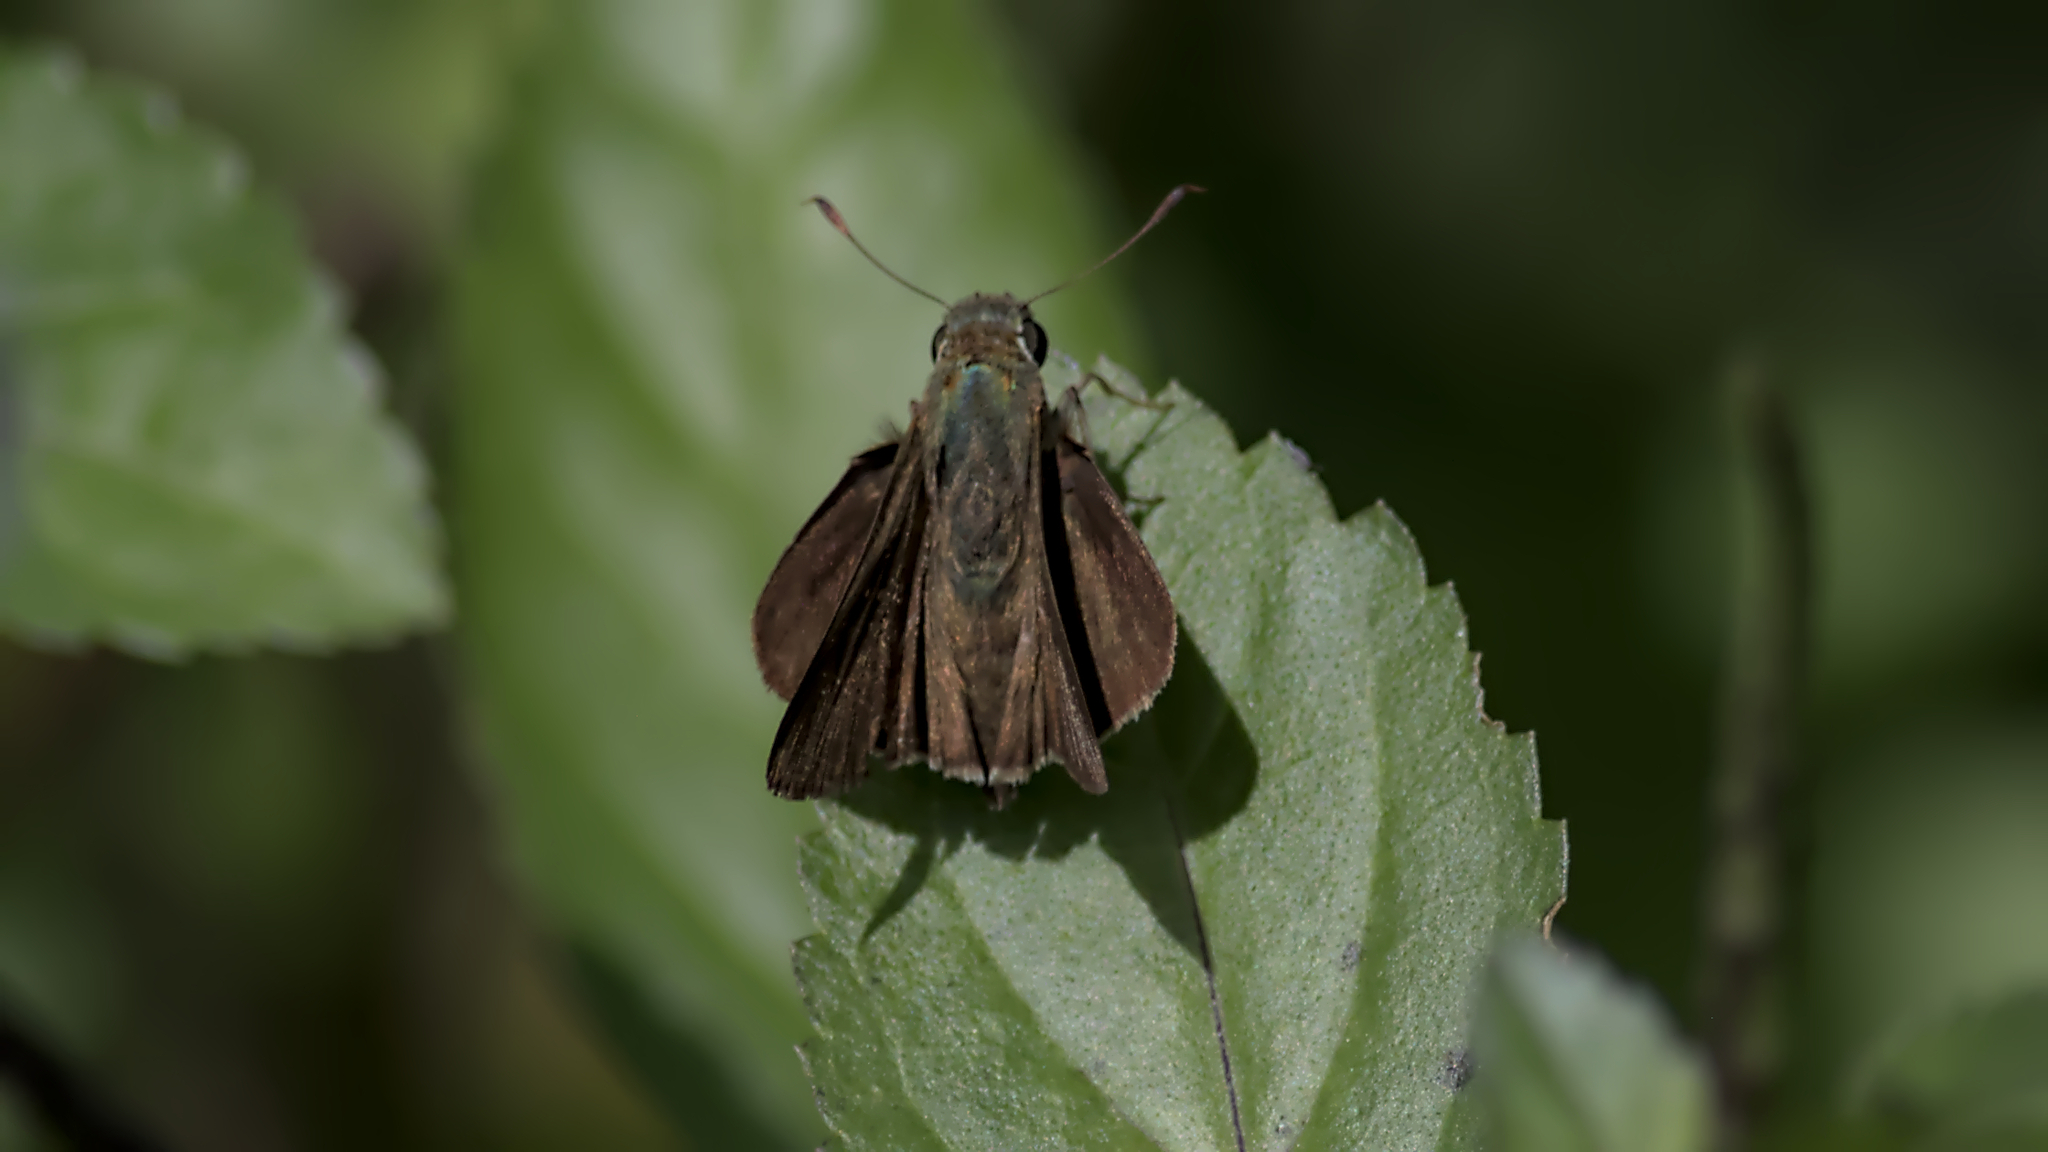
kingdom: Animalia
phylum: Arthropoda
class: Insecta
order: Lepidoptera
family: Hesperiidae
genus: Pelopidas
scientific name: Pelopidas agna
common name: Little branded swift
